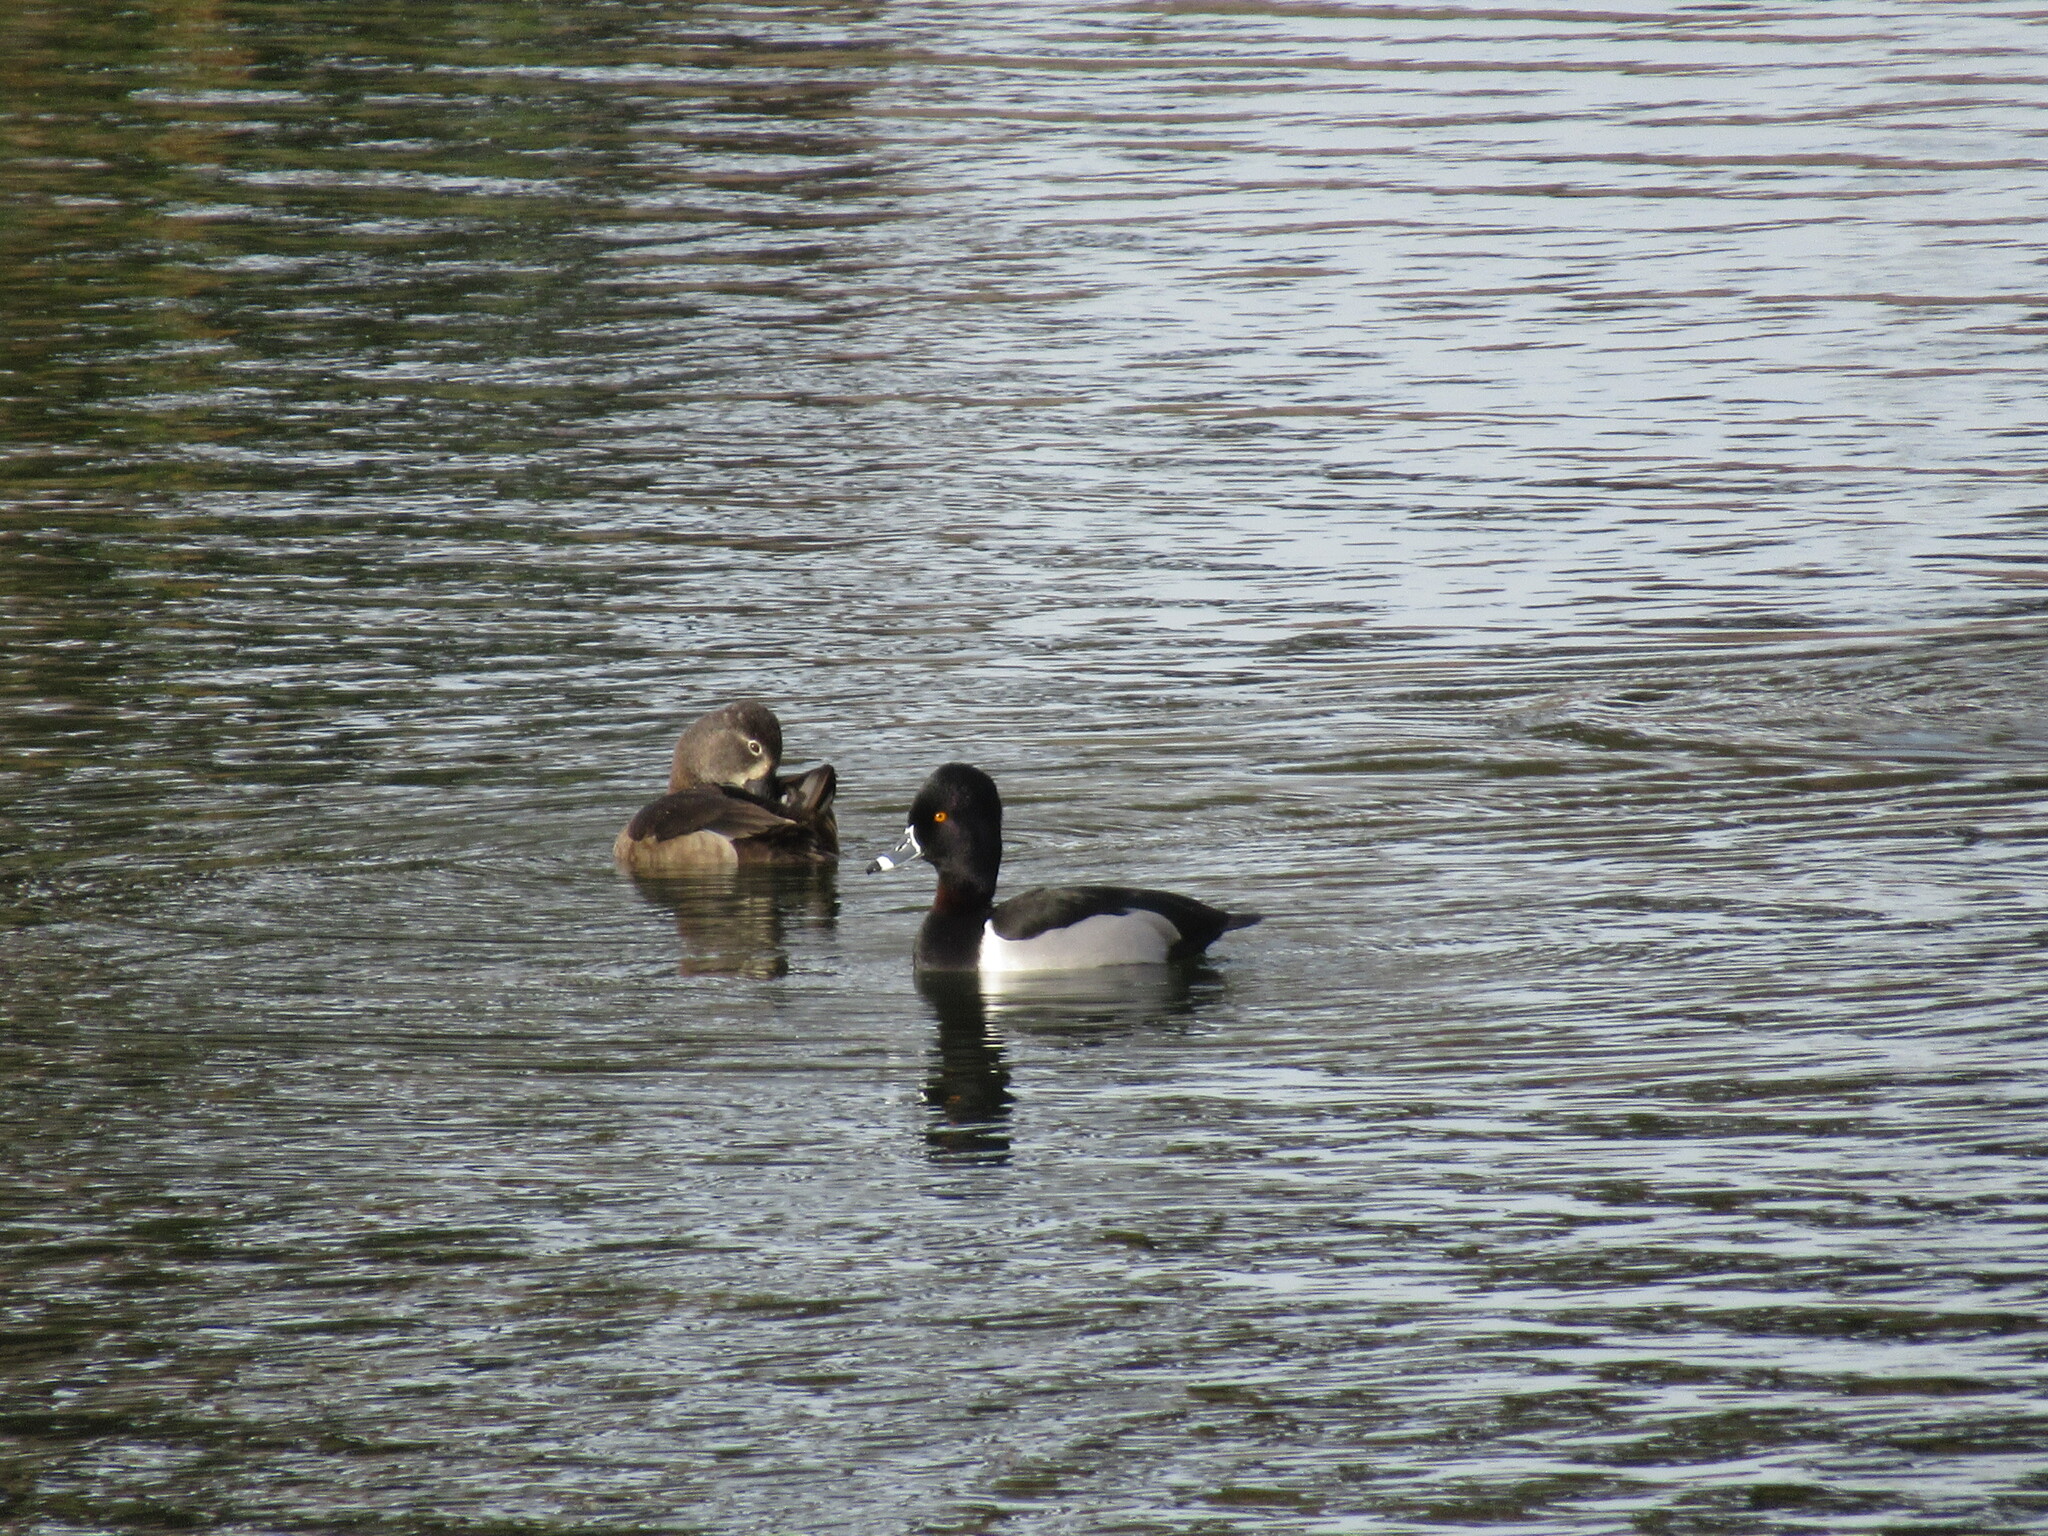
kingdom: Animalia
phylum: Chordata
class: Aves
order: Anseriformes
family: Anatidae
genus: Aythya
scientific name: Aythya collaris
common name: Ring-necked duck
